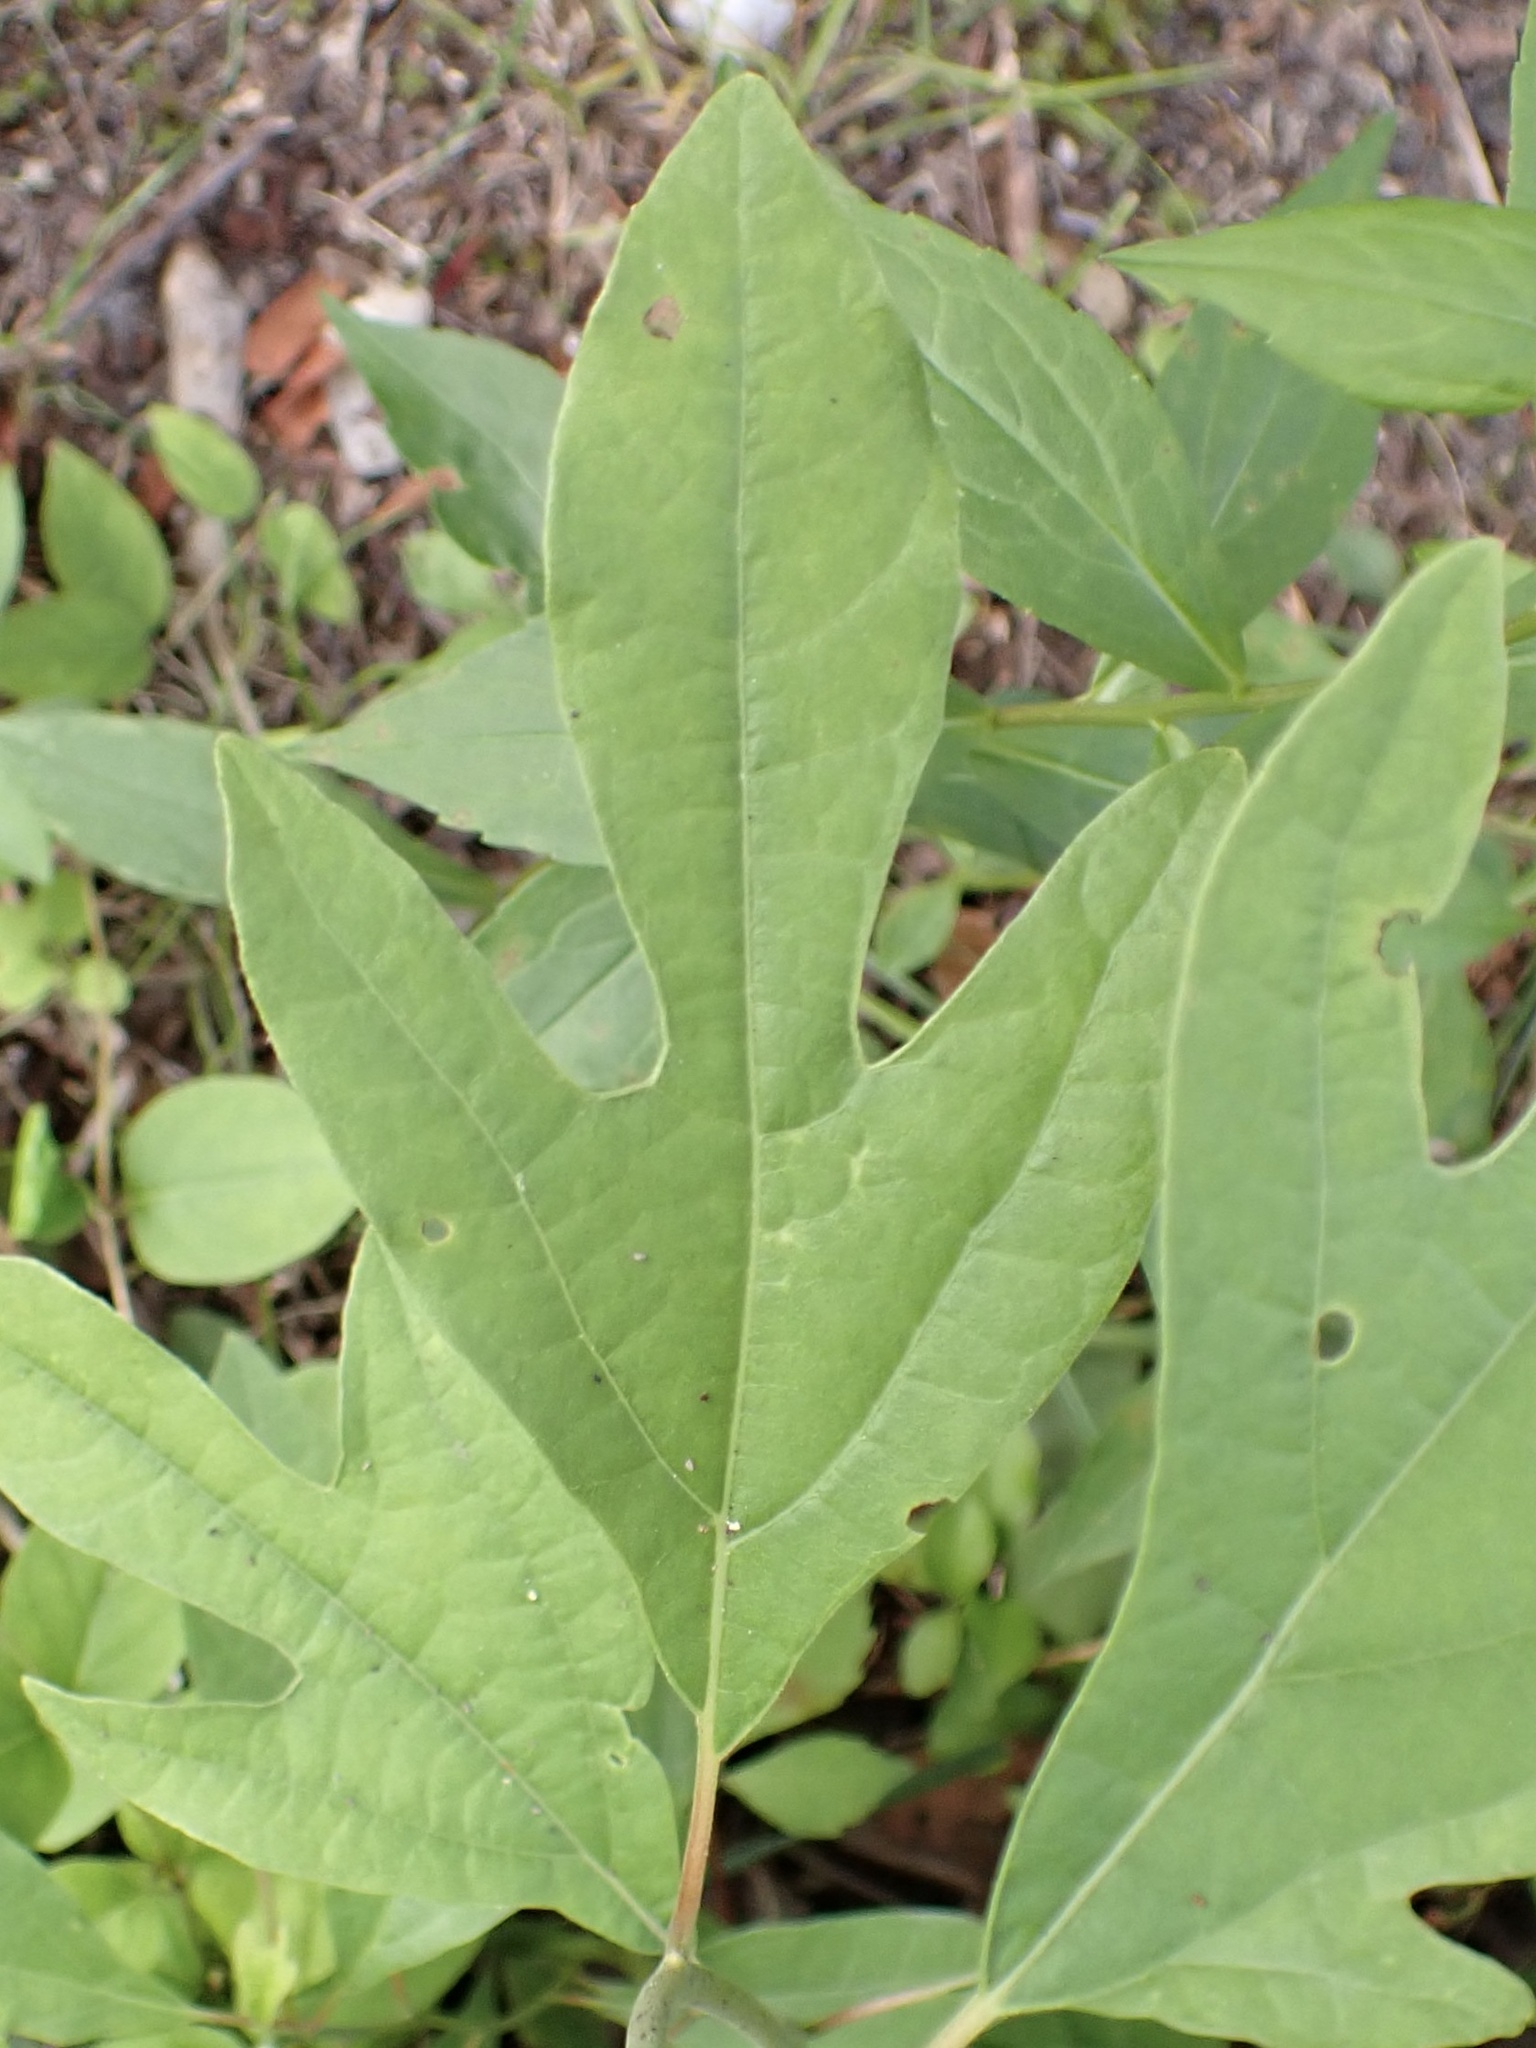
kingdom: Plantae
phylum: Tracheophyta
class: Magnoliopsida
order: Laurales
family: Lauraceae
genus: Sassafras
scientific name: Sassafras albidum
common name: Sassafras
